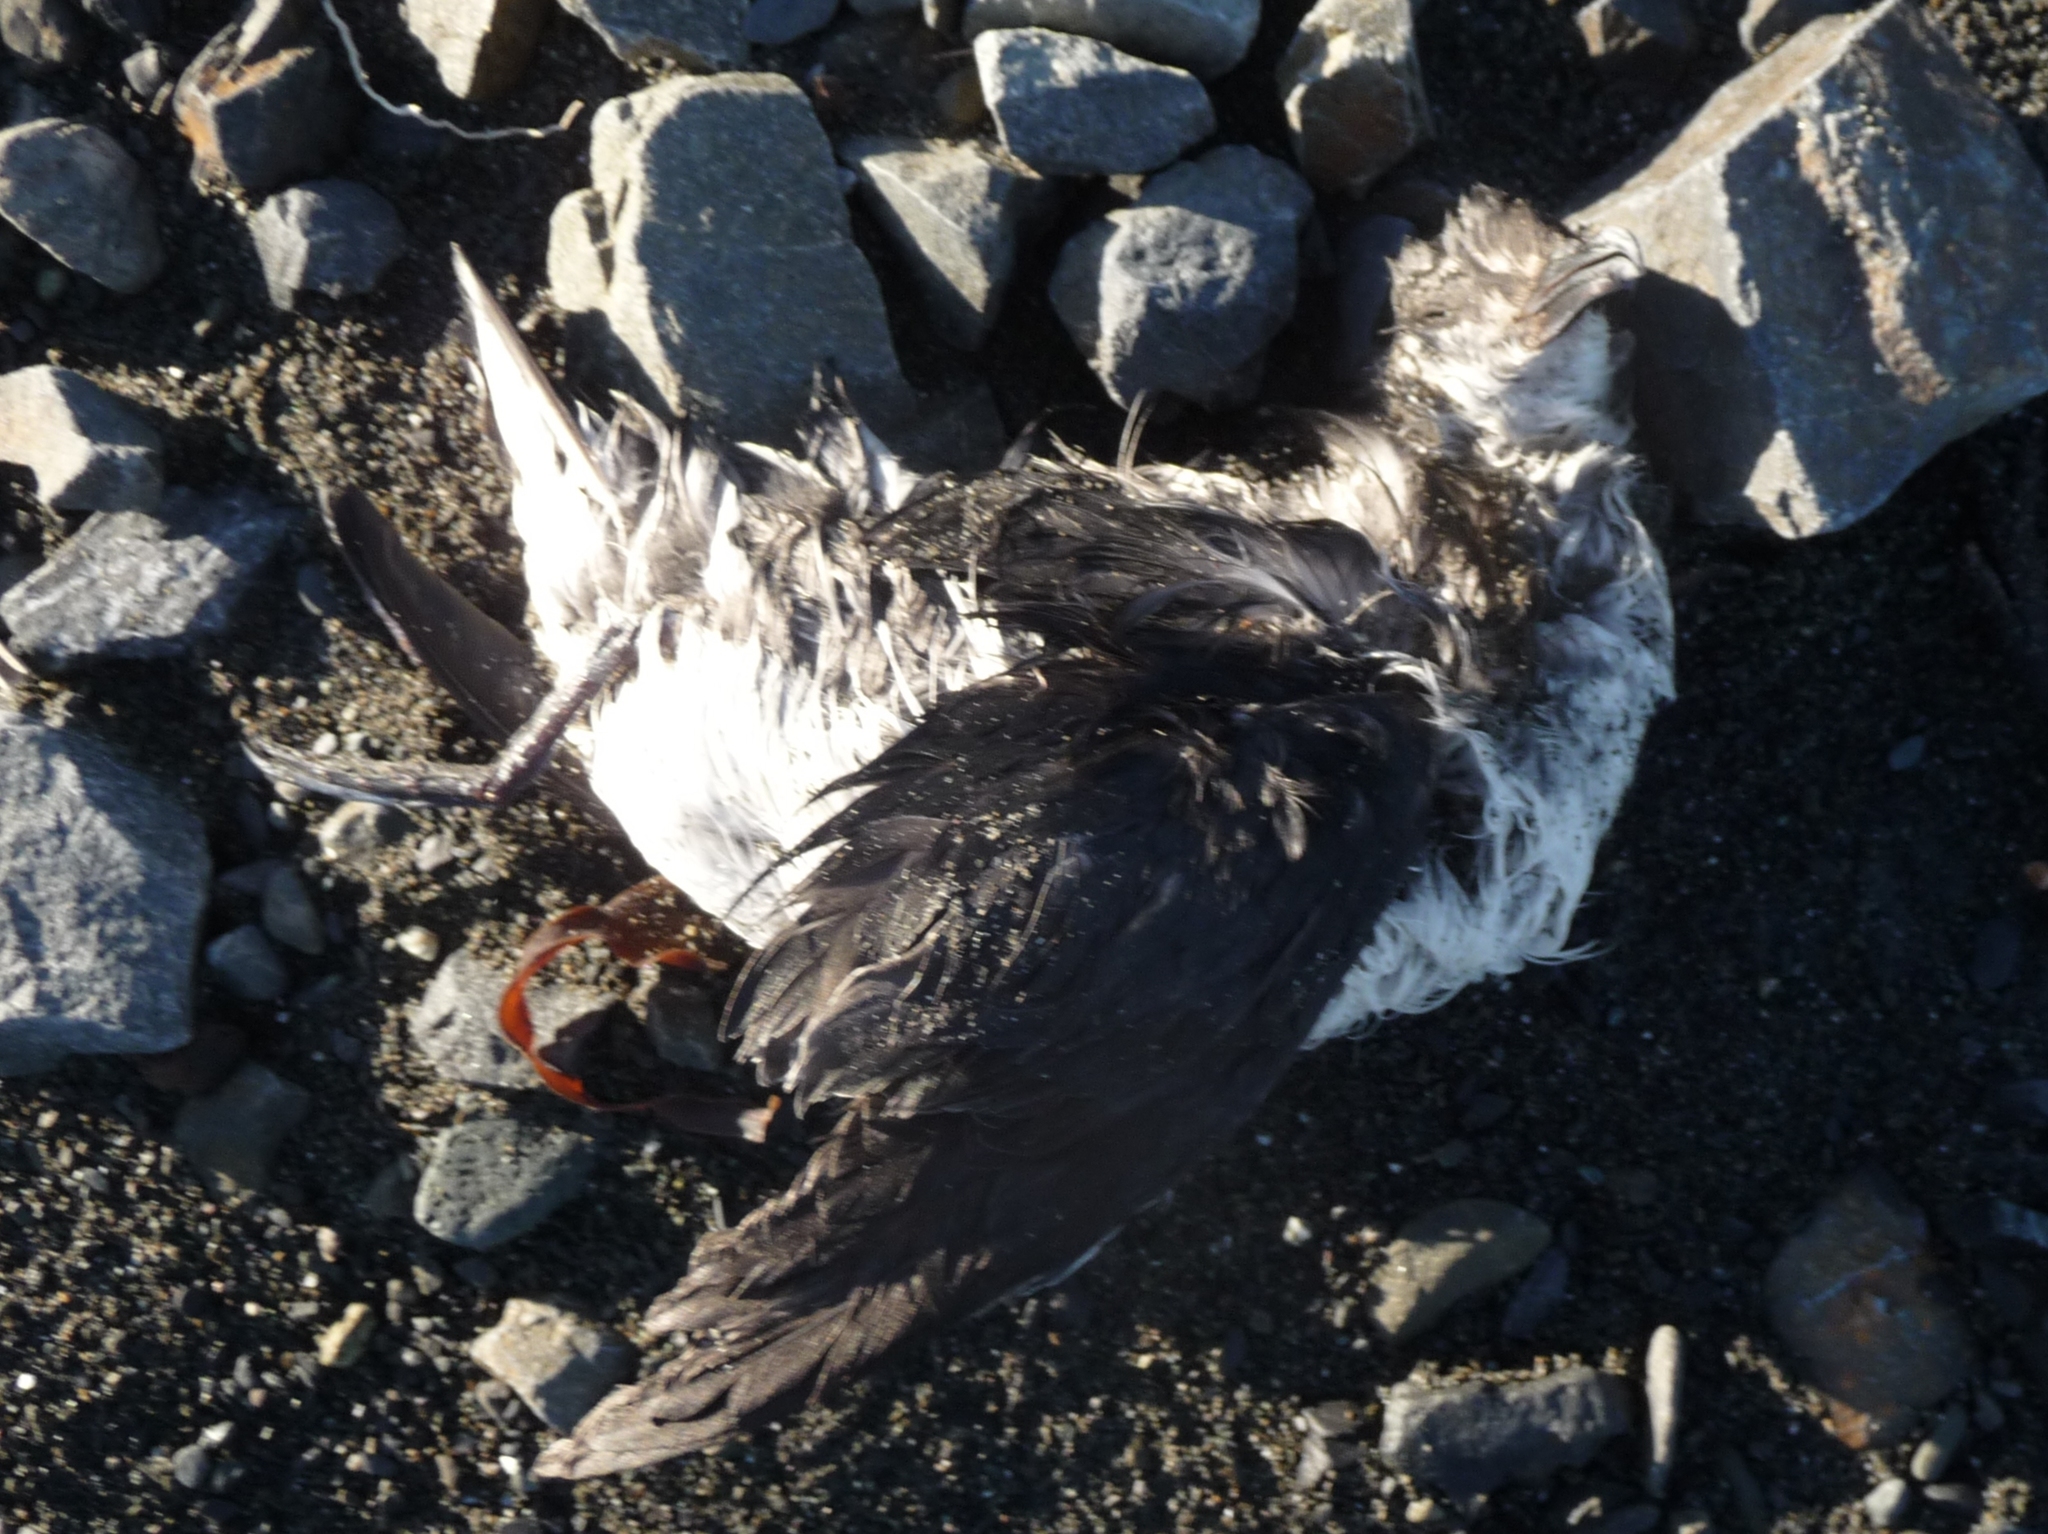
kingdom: Animalia
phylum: Chordata
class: Aves
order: Procellariiformes
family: Pelecanoididae
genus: Pelecanoides
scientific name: Pelecanoides urinatrix
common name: Common diving-petrel
